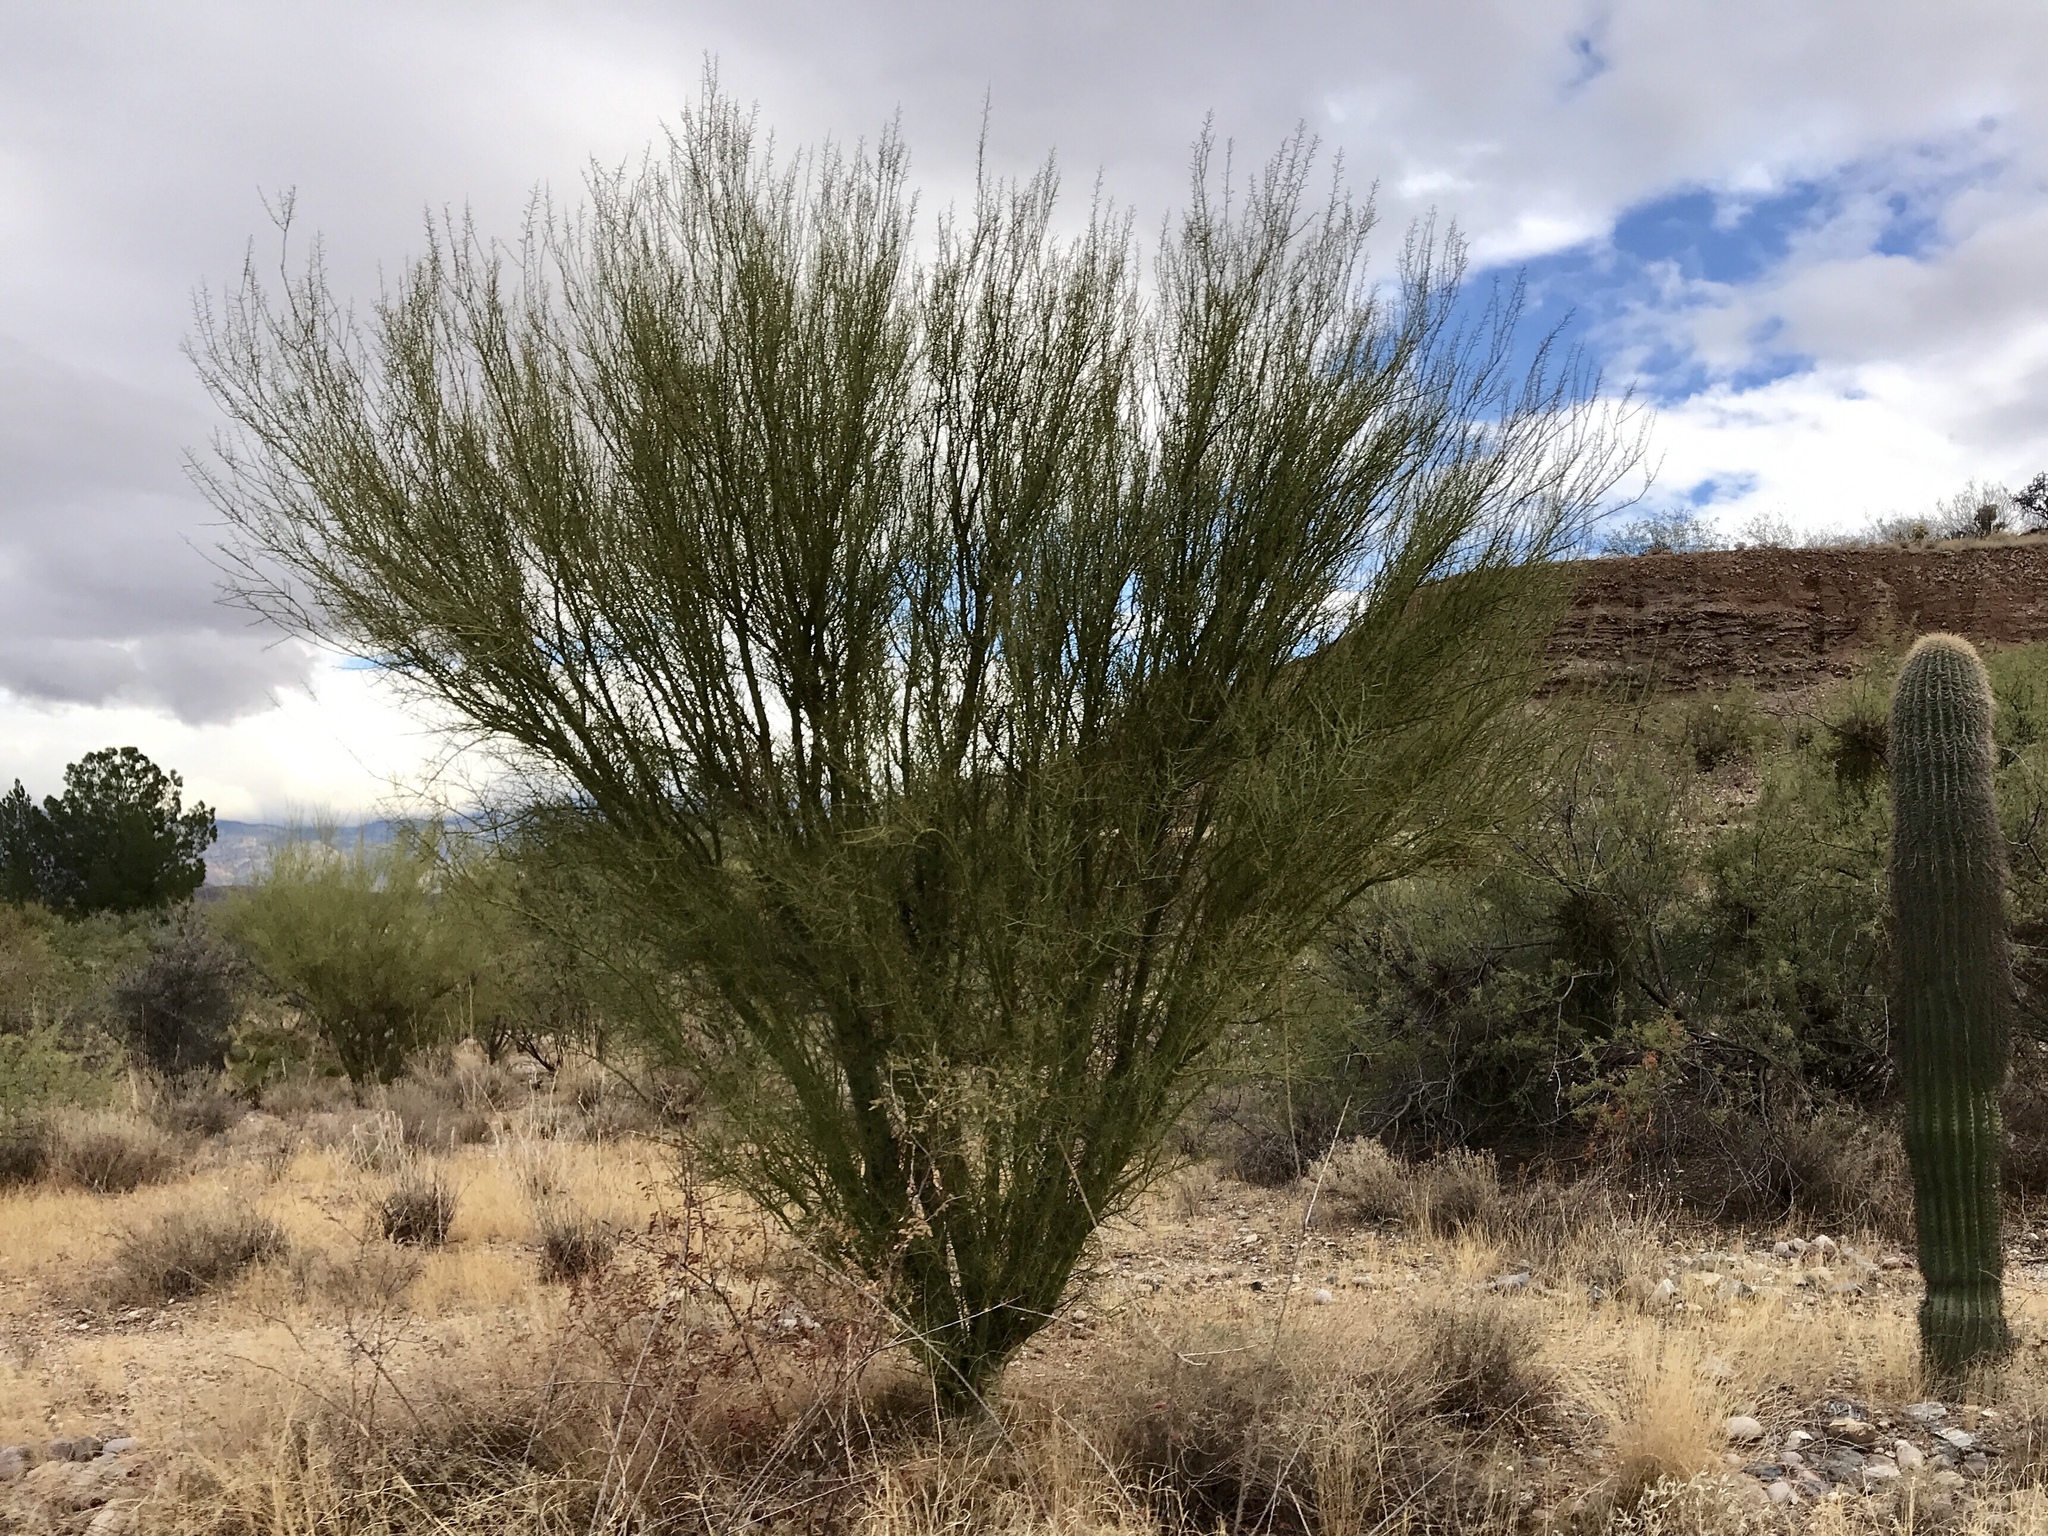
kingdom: Plantae
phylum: Tracheophyta
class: Magnoliopsida
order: Fabales
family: Fabaceae
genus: Parkinsonia
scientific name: Parkinsonia microphylla
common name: Yellow paloverde
